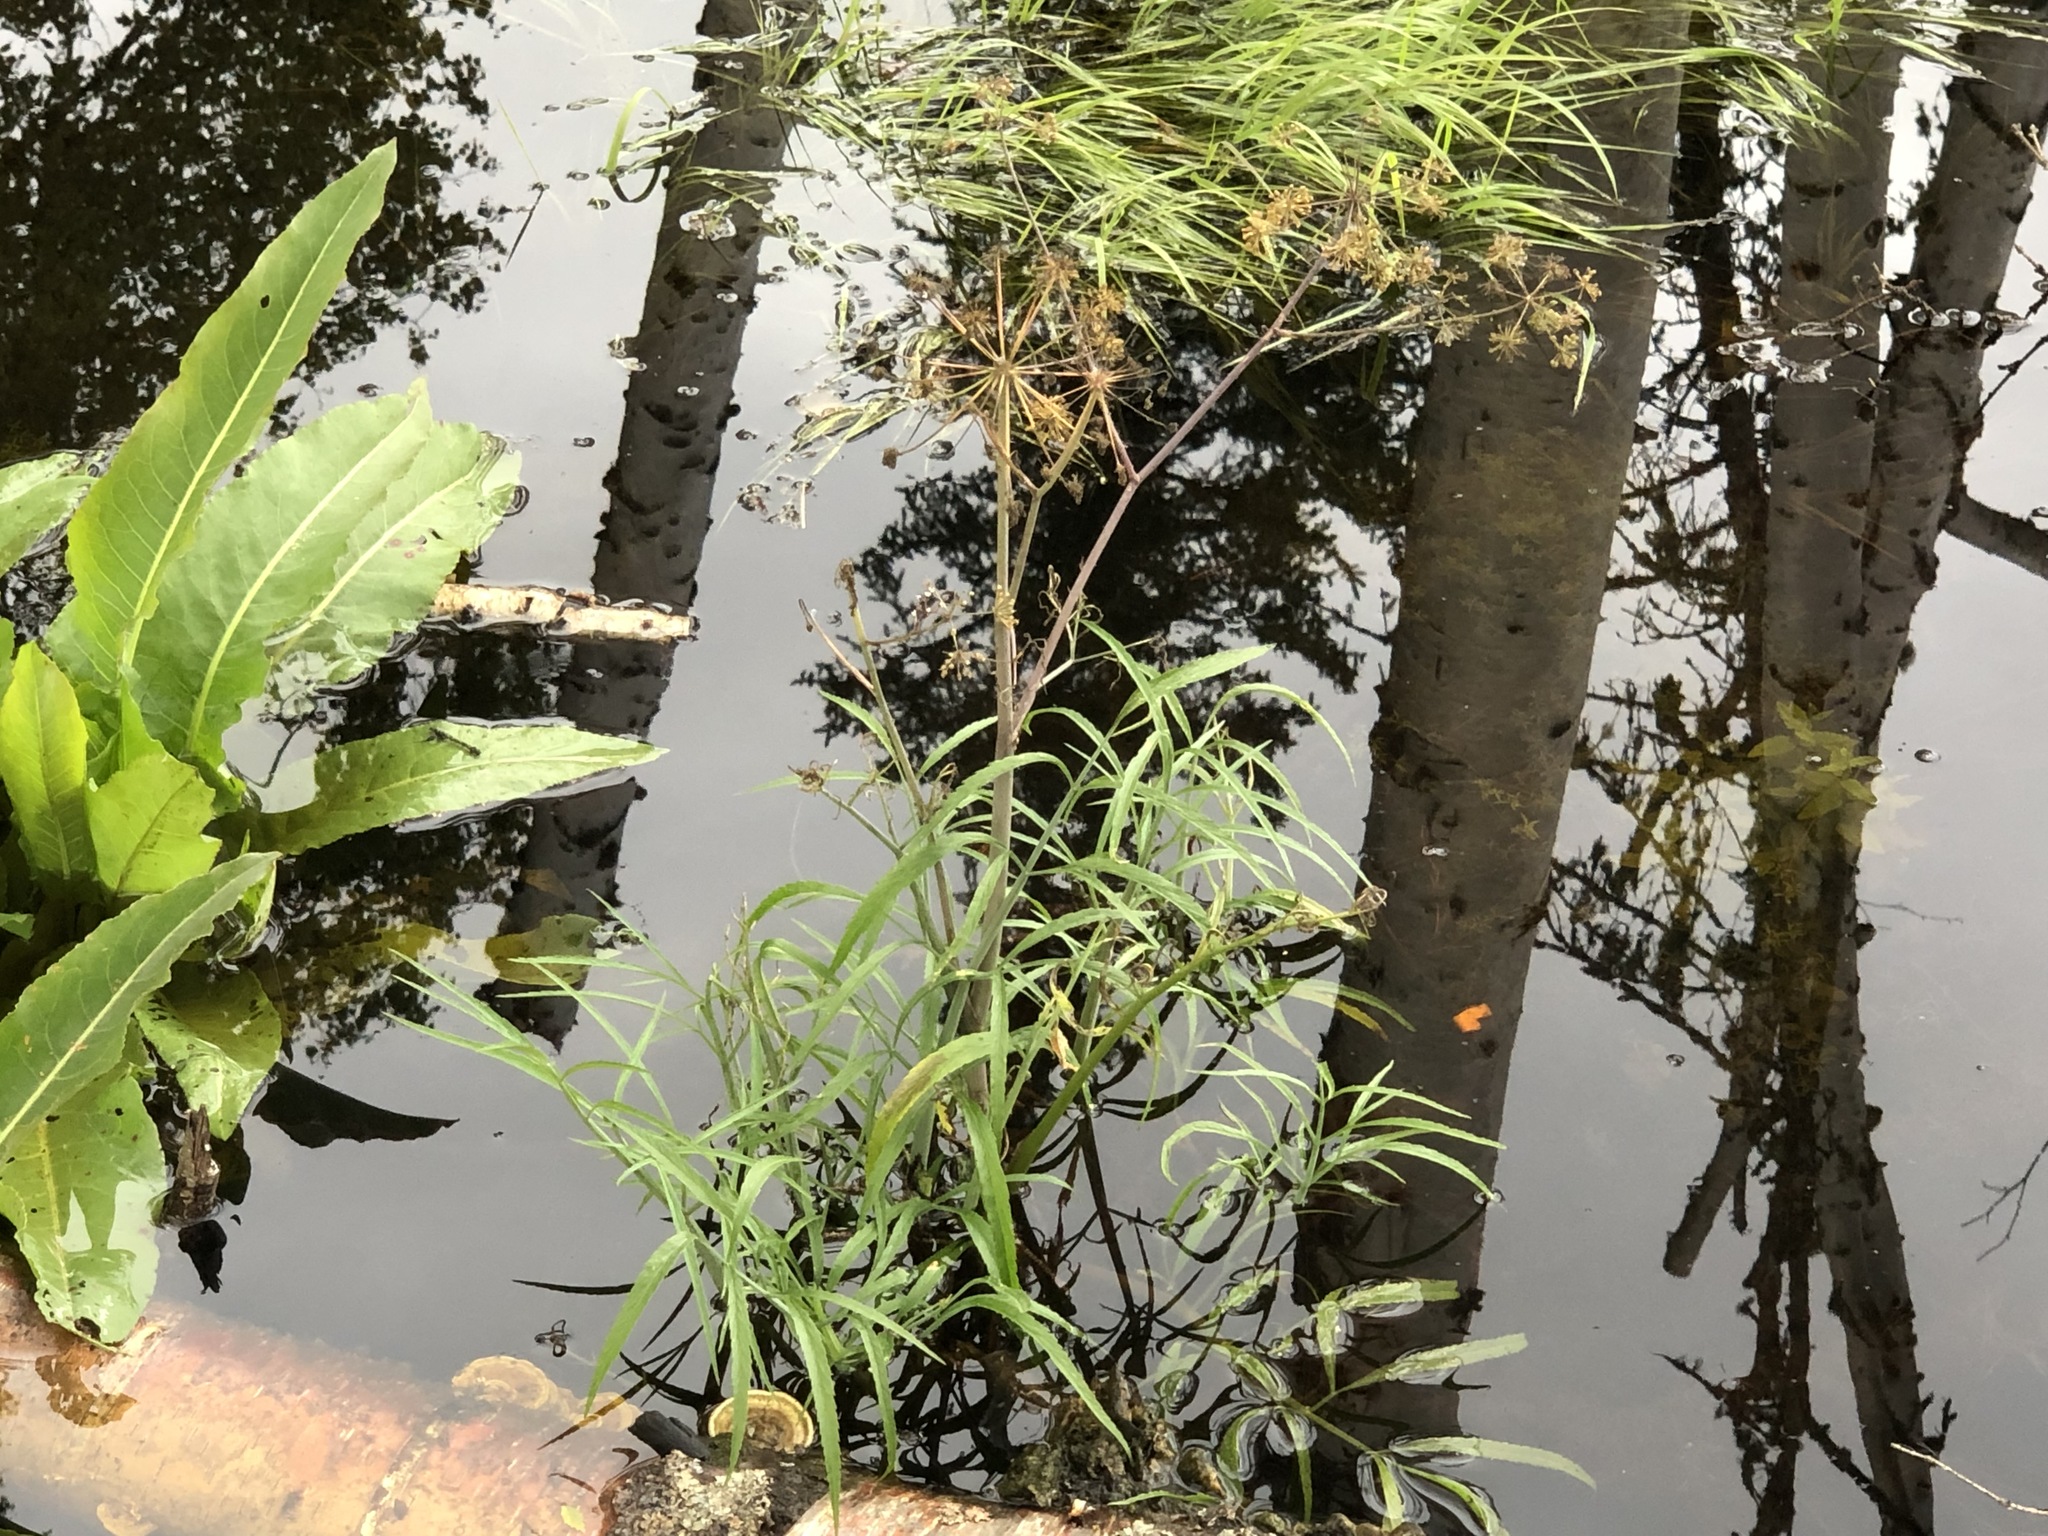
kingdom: Plantae
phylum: Tracheophyta
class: Magnoliopsida
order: Apiales
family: Apiaceae
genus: Cicuta
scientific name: Cicuta virosa
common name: Cowbane
